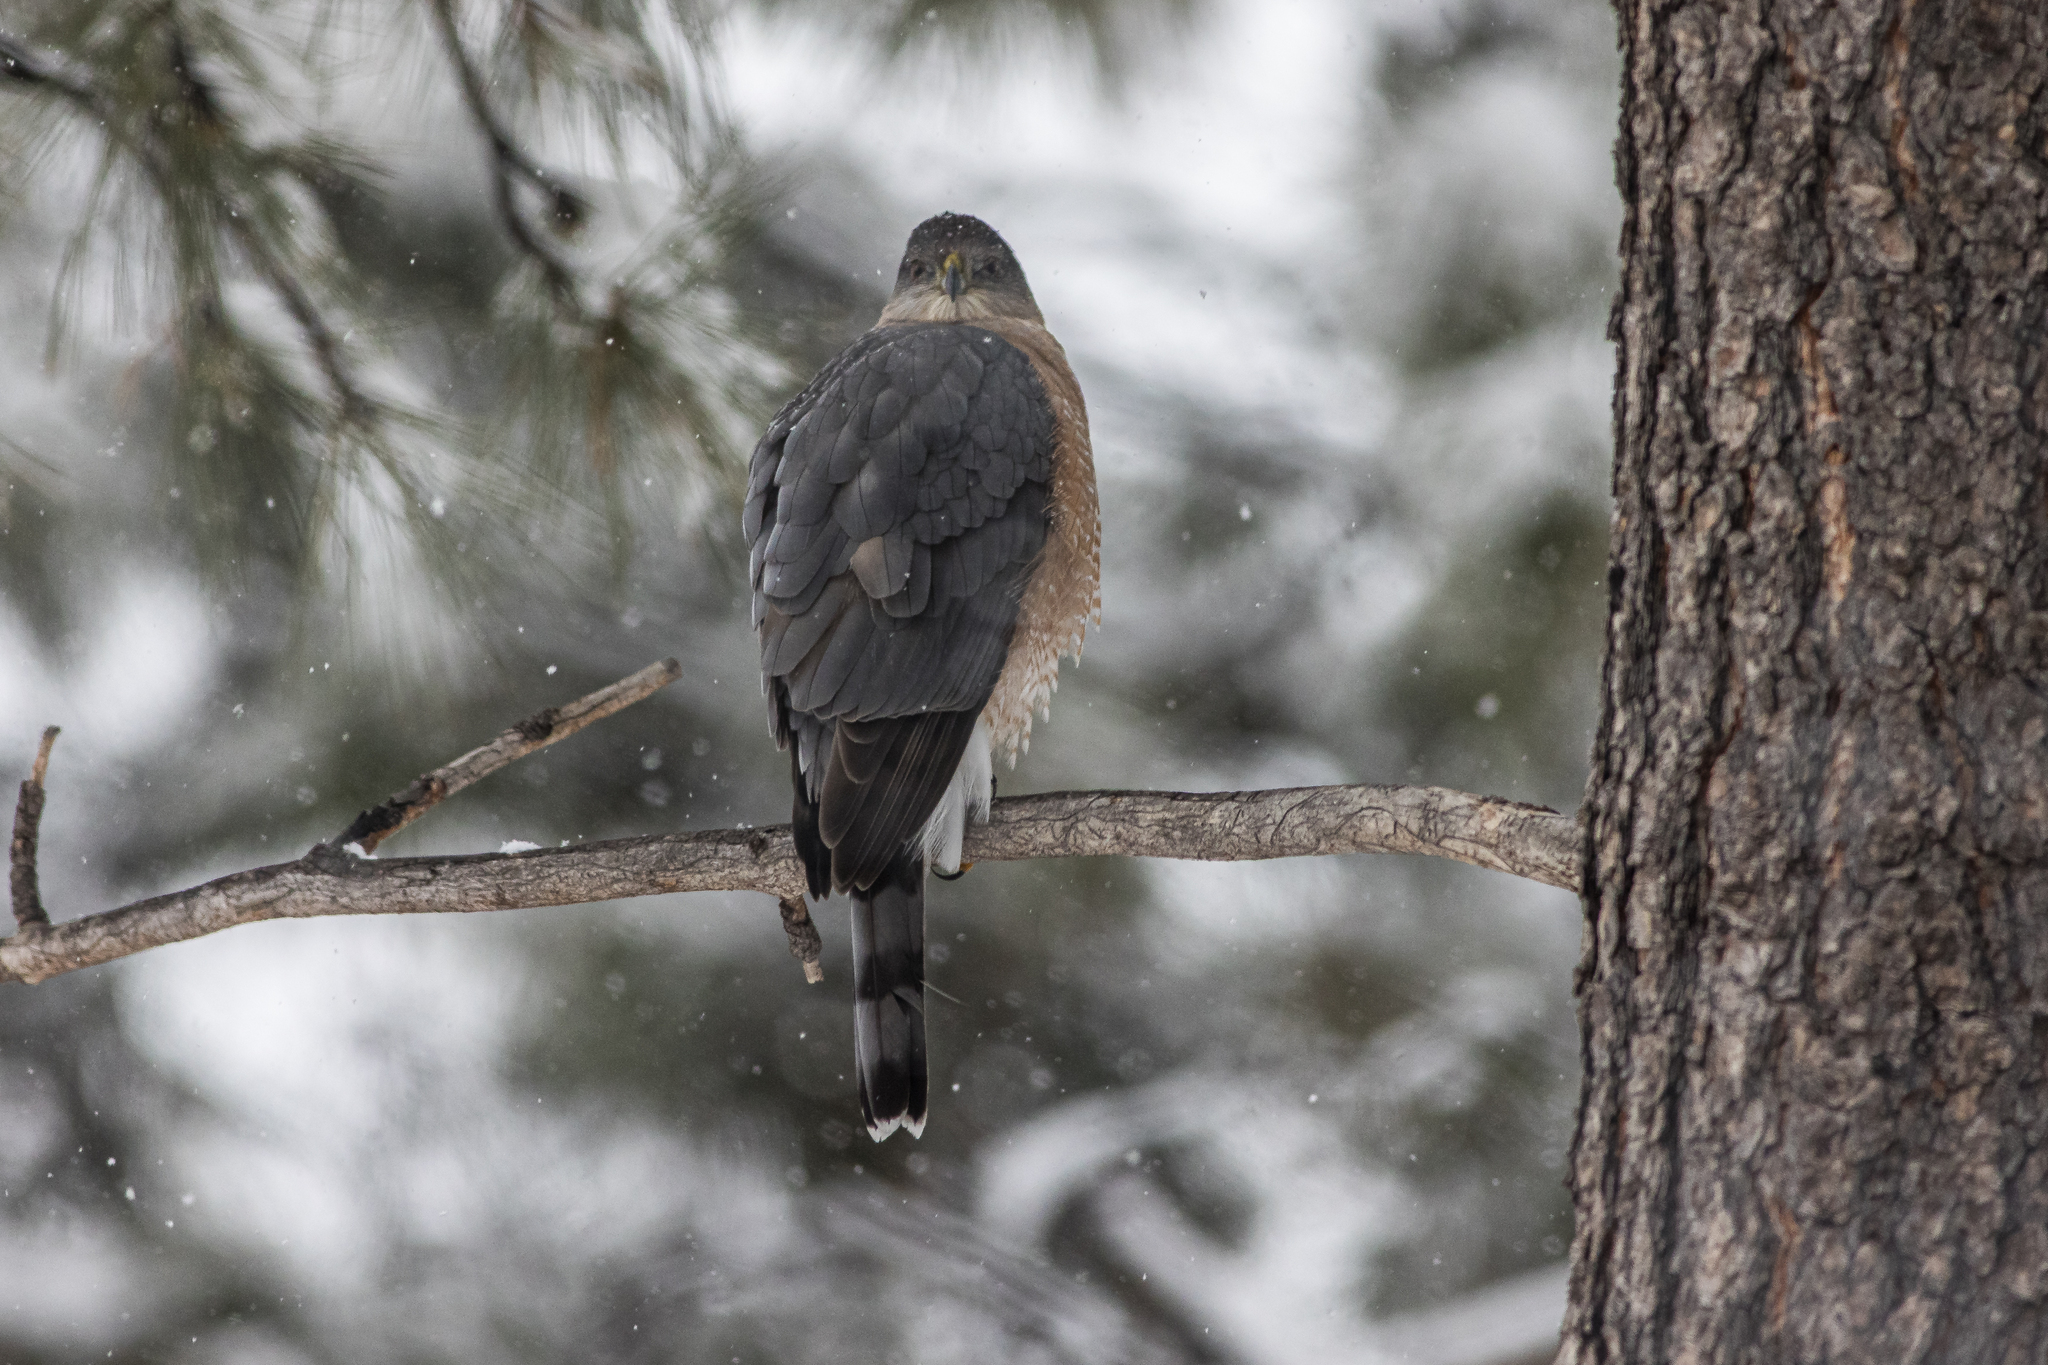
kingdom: Animalia
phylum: Chordata
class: Aves
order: Accipitriformes
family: Accipitridae
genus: Accipiter
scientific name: Accipiter cooperii
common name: Cooper's hawk
